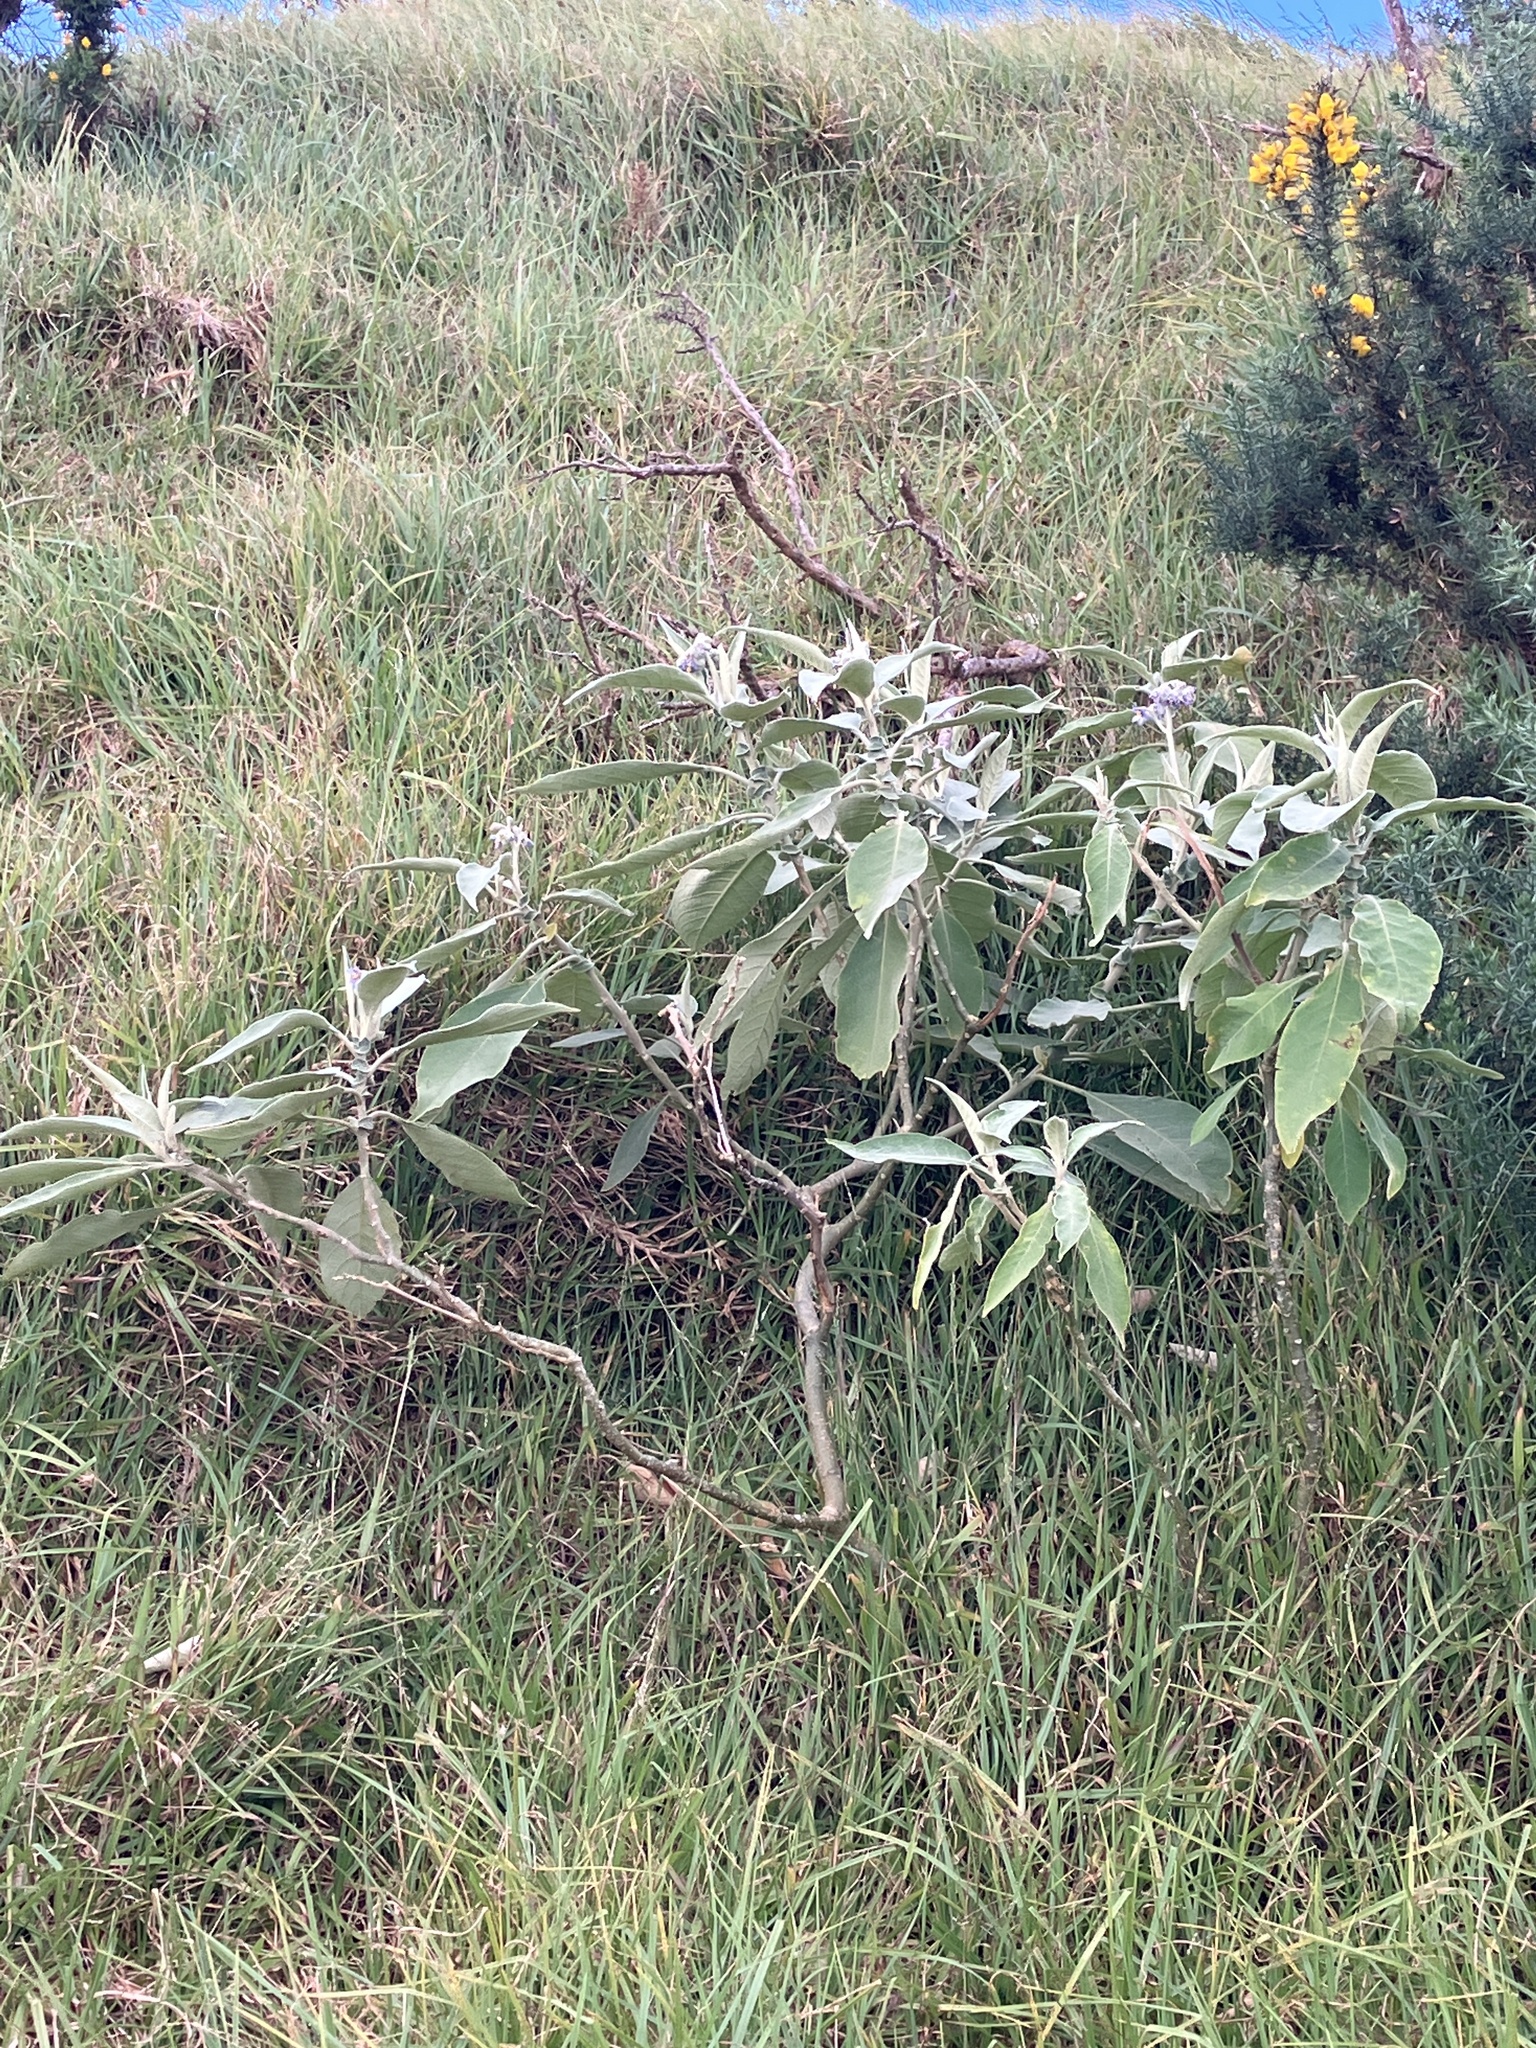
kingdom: Plantae
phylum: Tracheophyta
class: Magnoliopsida
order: Solanales
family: Solanaceae
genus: Solanum
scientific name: Solanum mauritianum
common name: Earleaf nightshade
